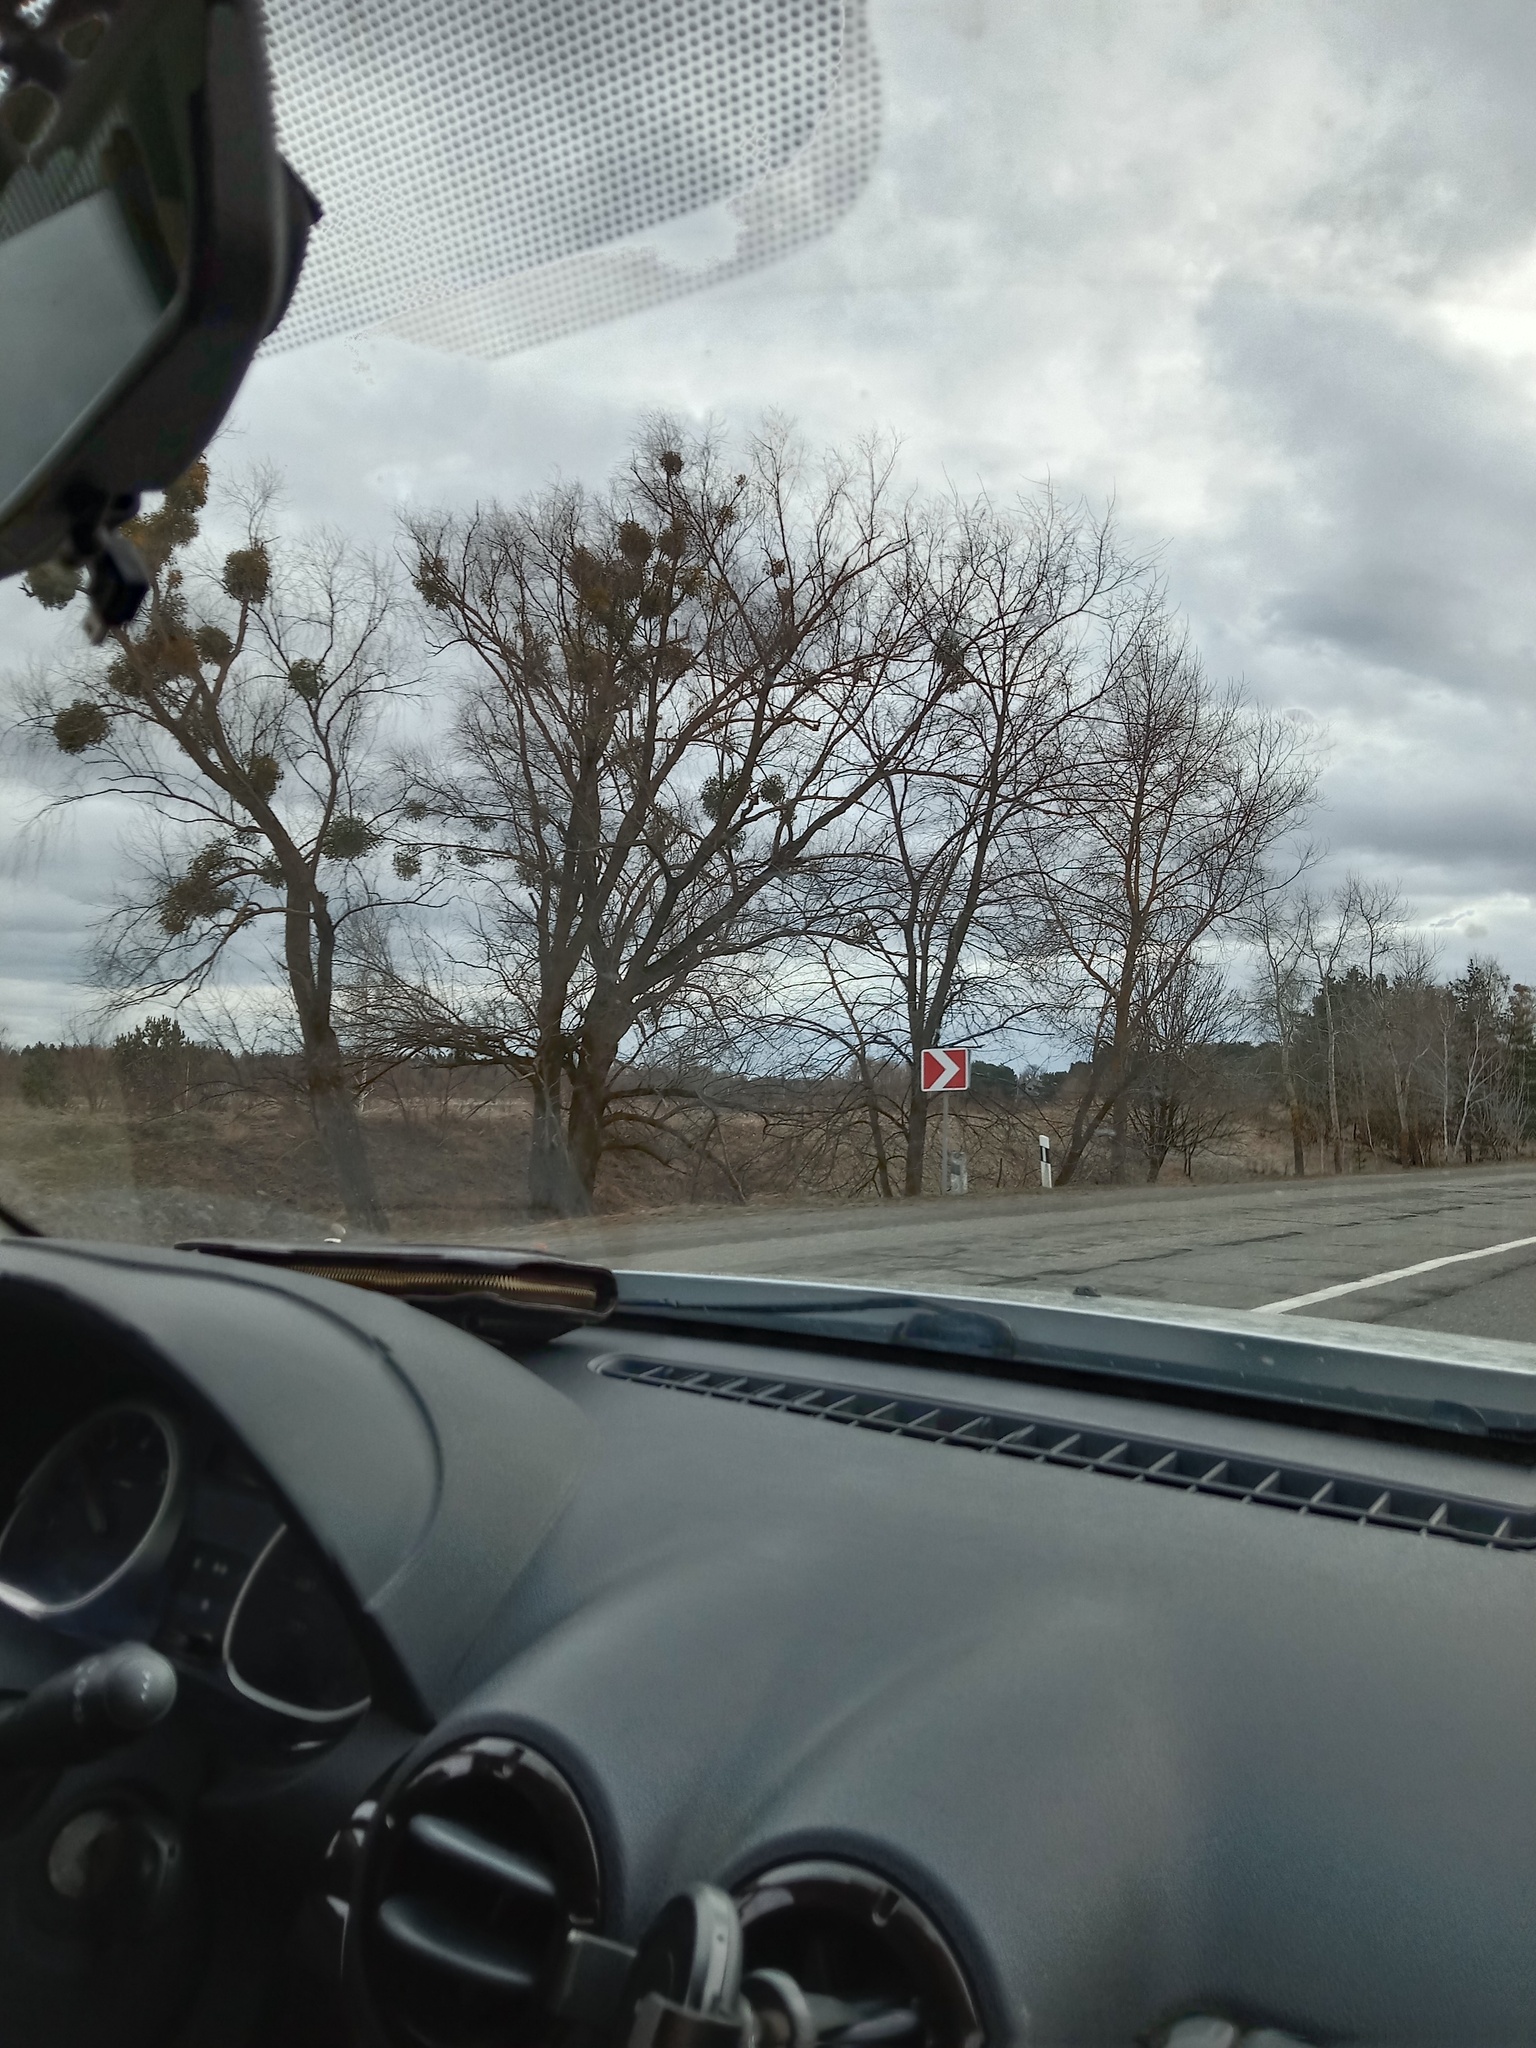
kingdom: Plantae
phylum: Tracheophyta
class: Magnoliopsida
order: Santalales
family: Viscaceae
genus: Viscum
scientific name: Viscum album
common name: Mistletoe
